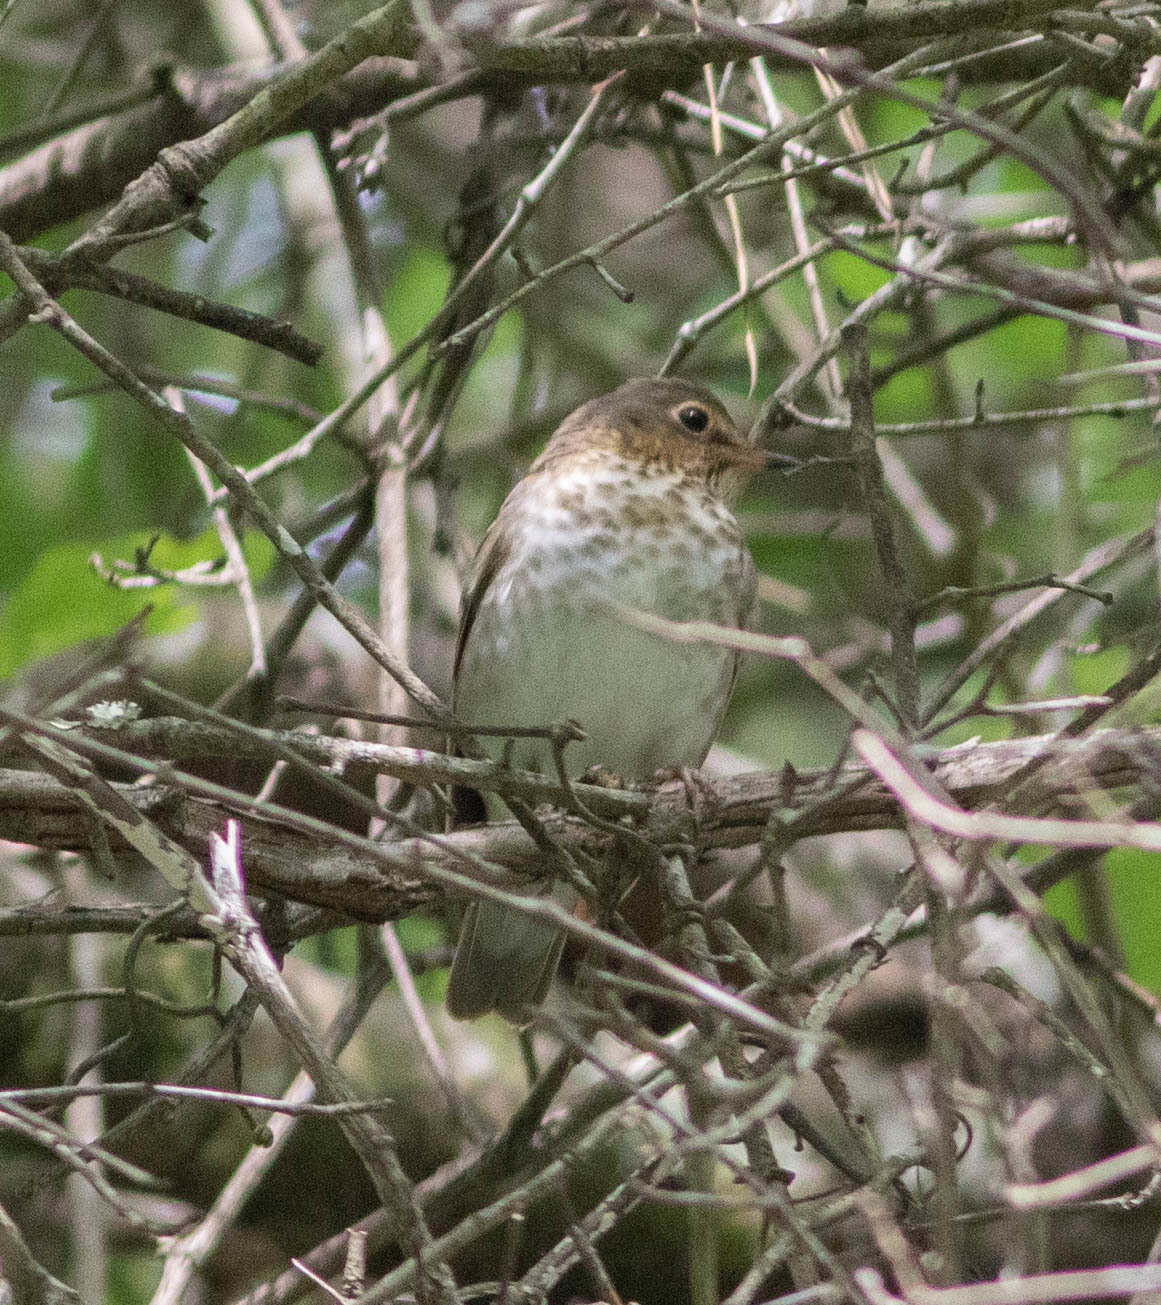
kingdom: Animalia
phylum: Chordata
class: Aves
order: Passeriformes
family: Turdidae
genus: Catharus
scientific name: Catharus ustulatus
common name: Swainson's thrush
